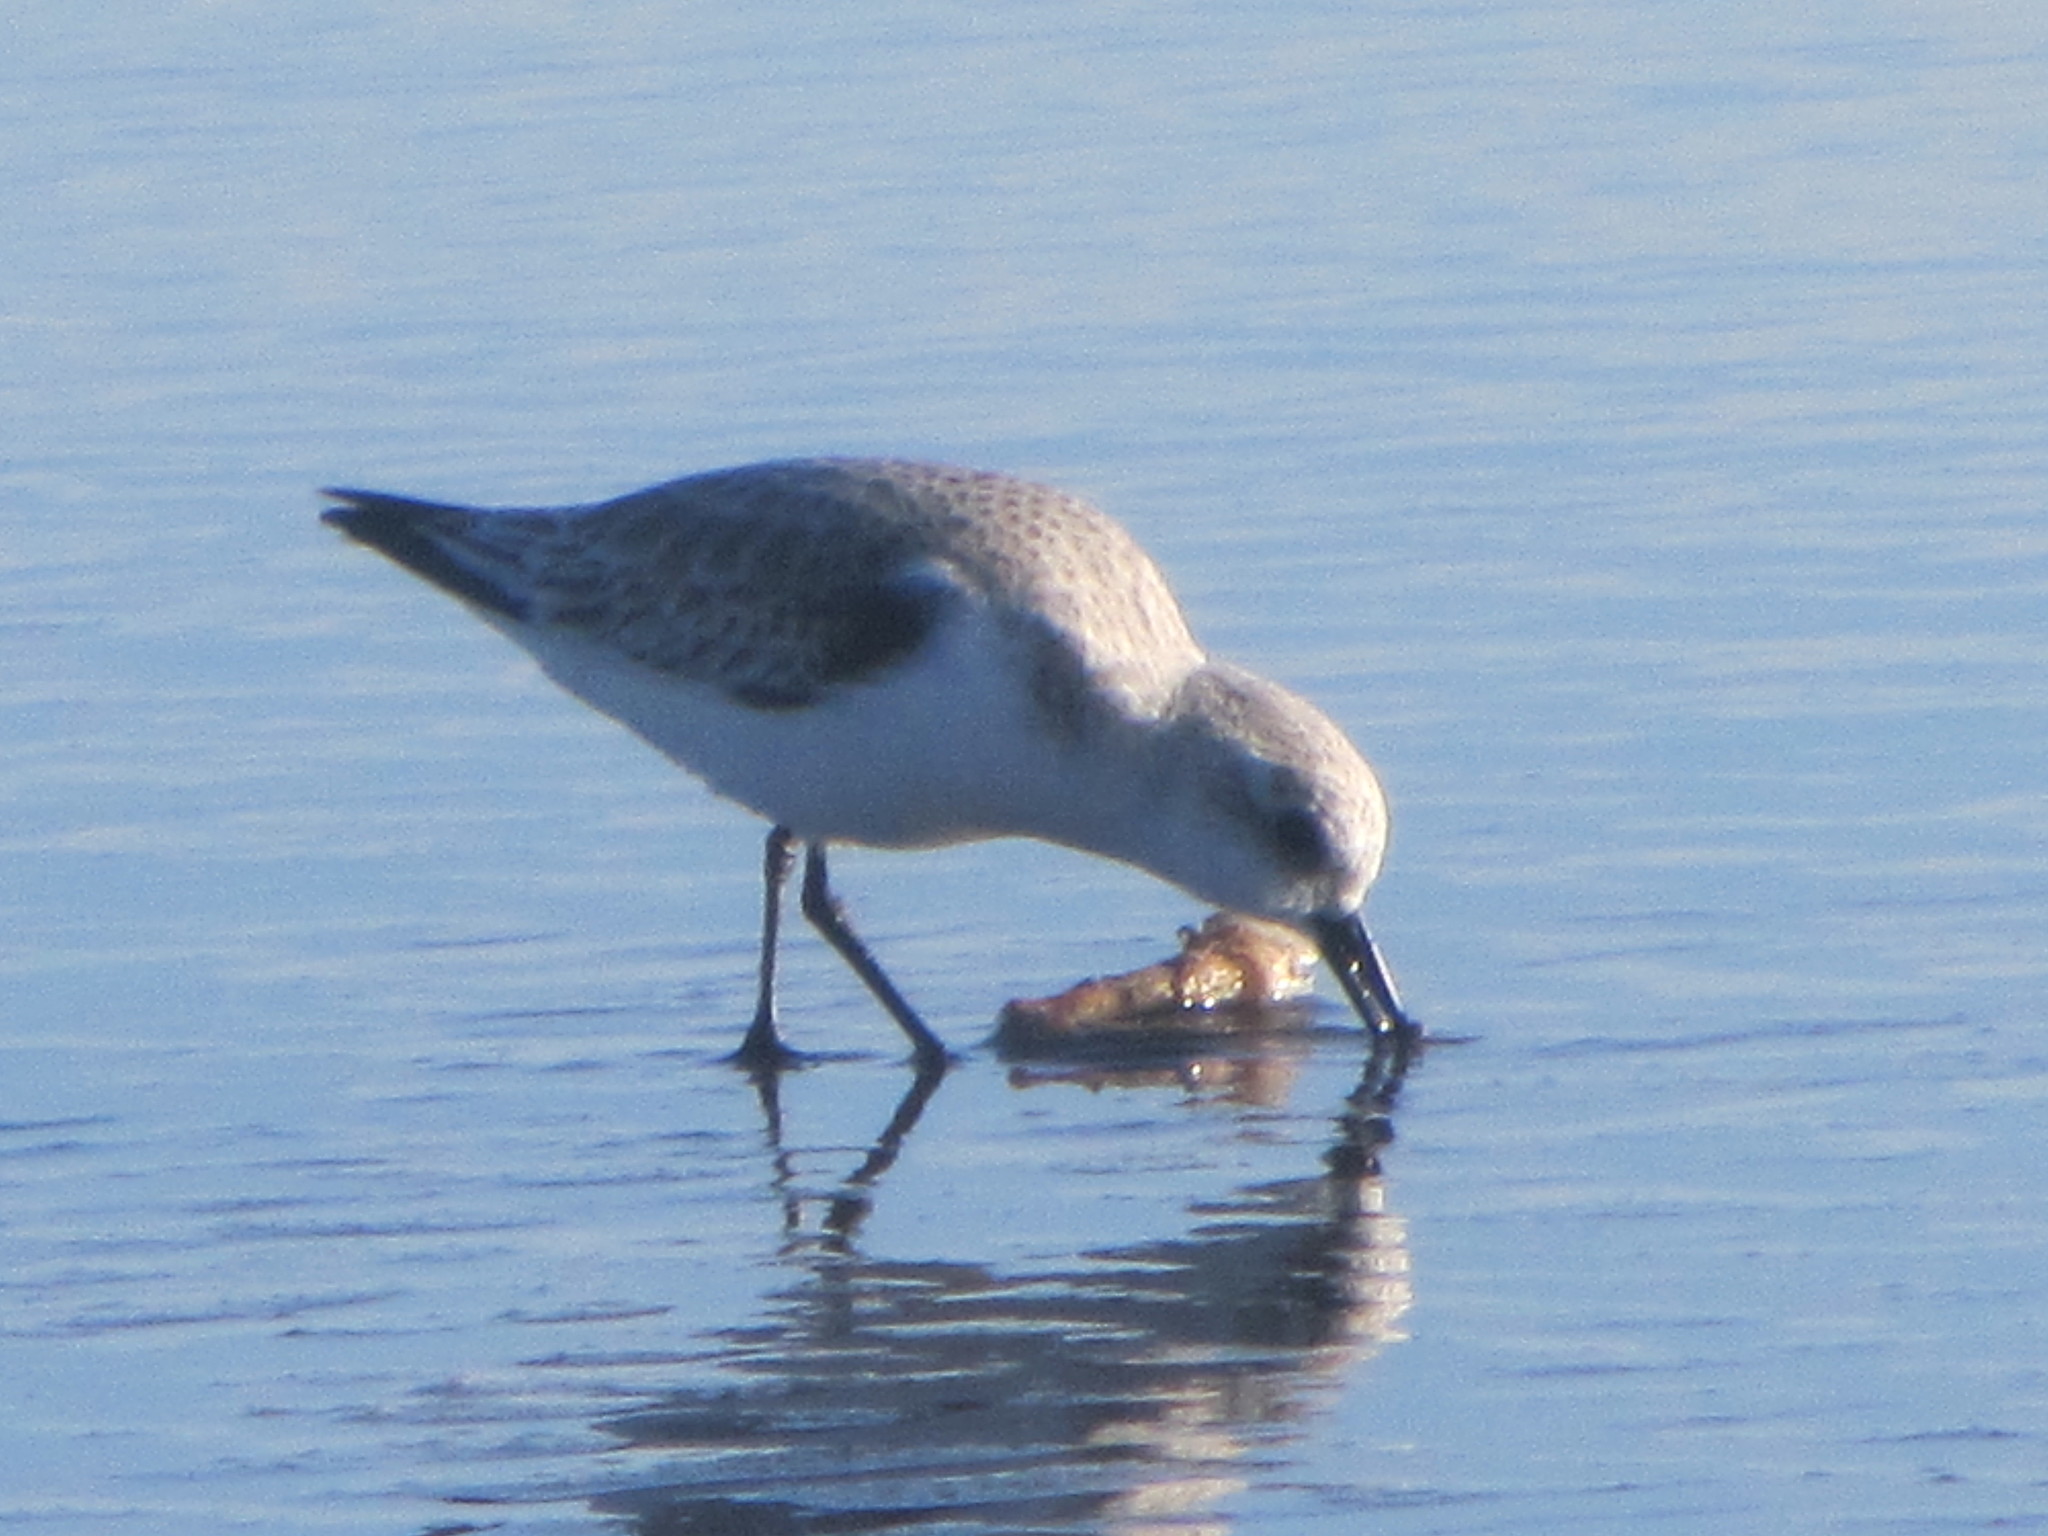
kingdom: Animalia
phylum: Chordata
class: Aves
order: Charadriiformes
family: Scolopacidae
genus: Calidris
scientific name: Calidris alba
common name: Sanderling
